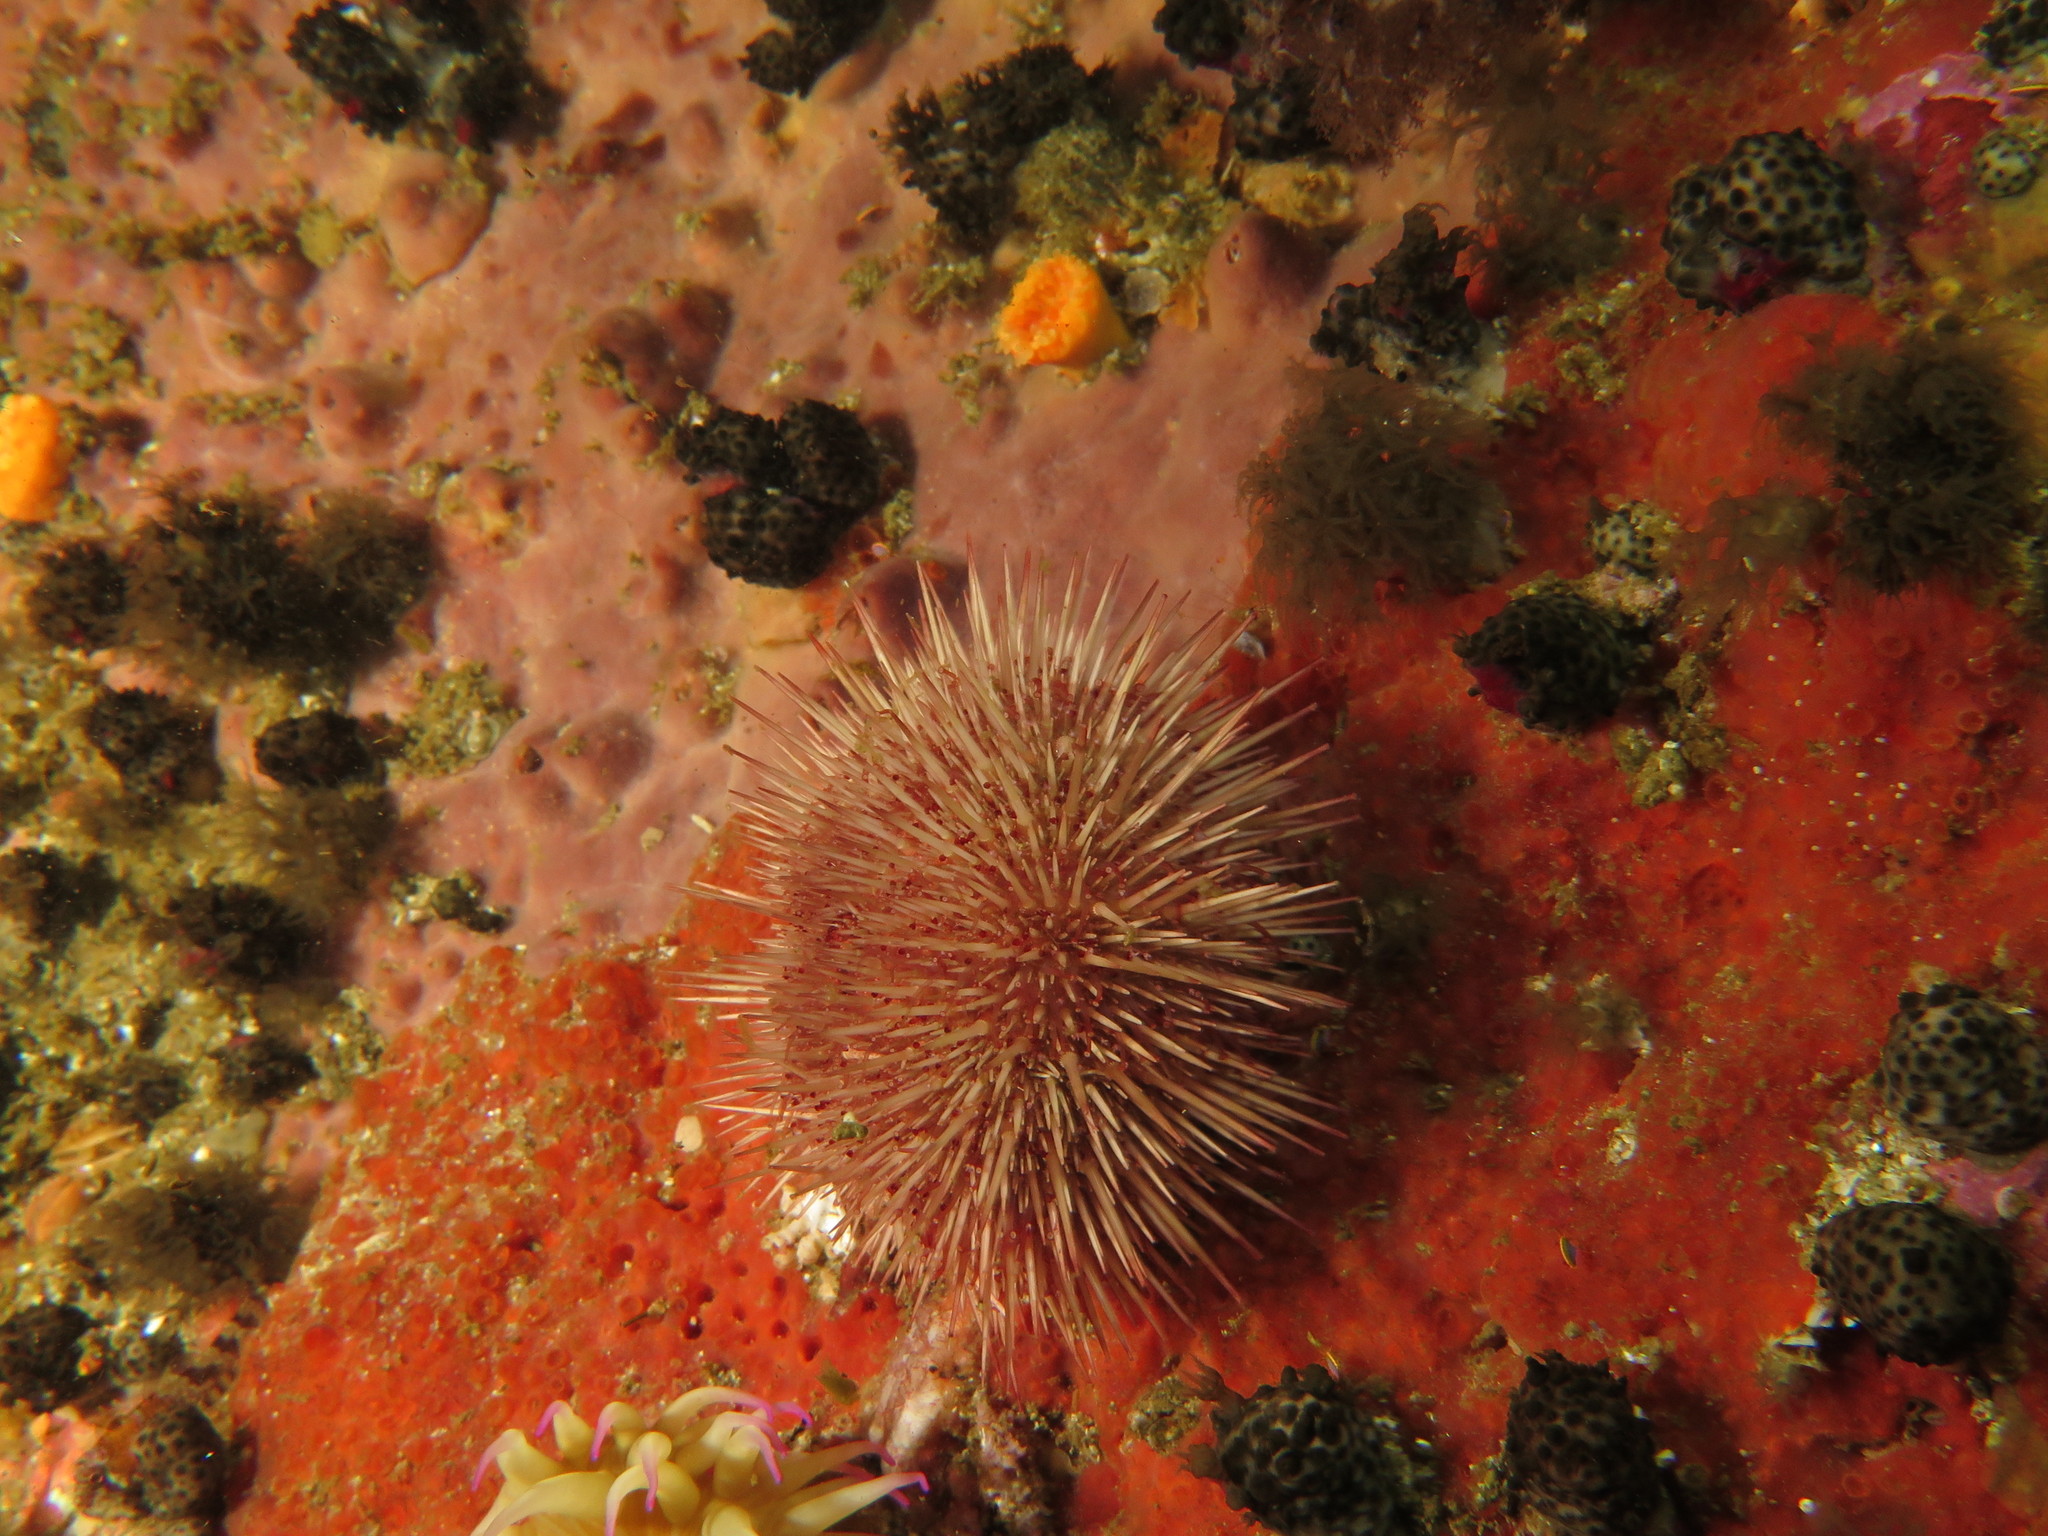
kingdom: Animalia
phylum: Echinodermata
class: Echinoidea
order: Camarodonta
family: Parechinidae
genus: Parechinus
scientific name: Parechinus angulosus
